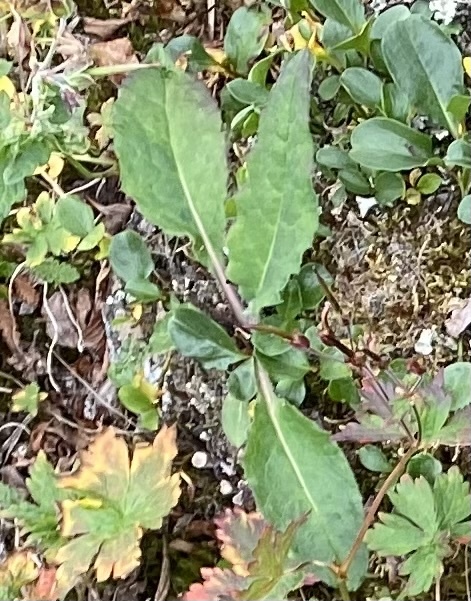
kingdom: Plantae
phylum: Tracheophyta
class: Magnoliopsida
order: Asterales
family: Asteraceae
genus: Saussurea
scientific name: Saussurea parviflora
